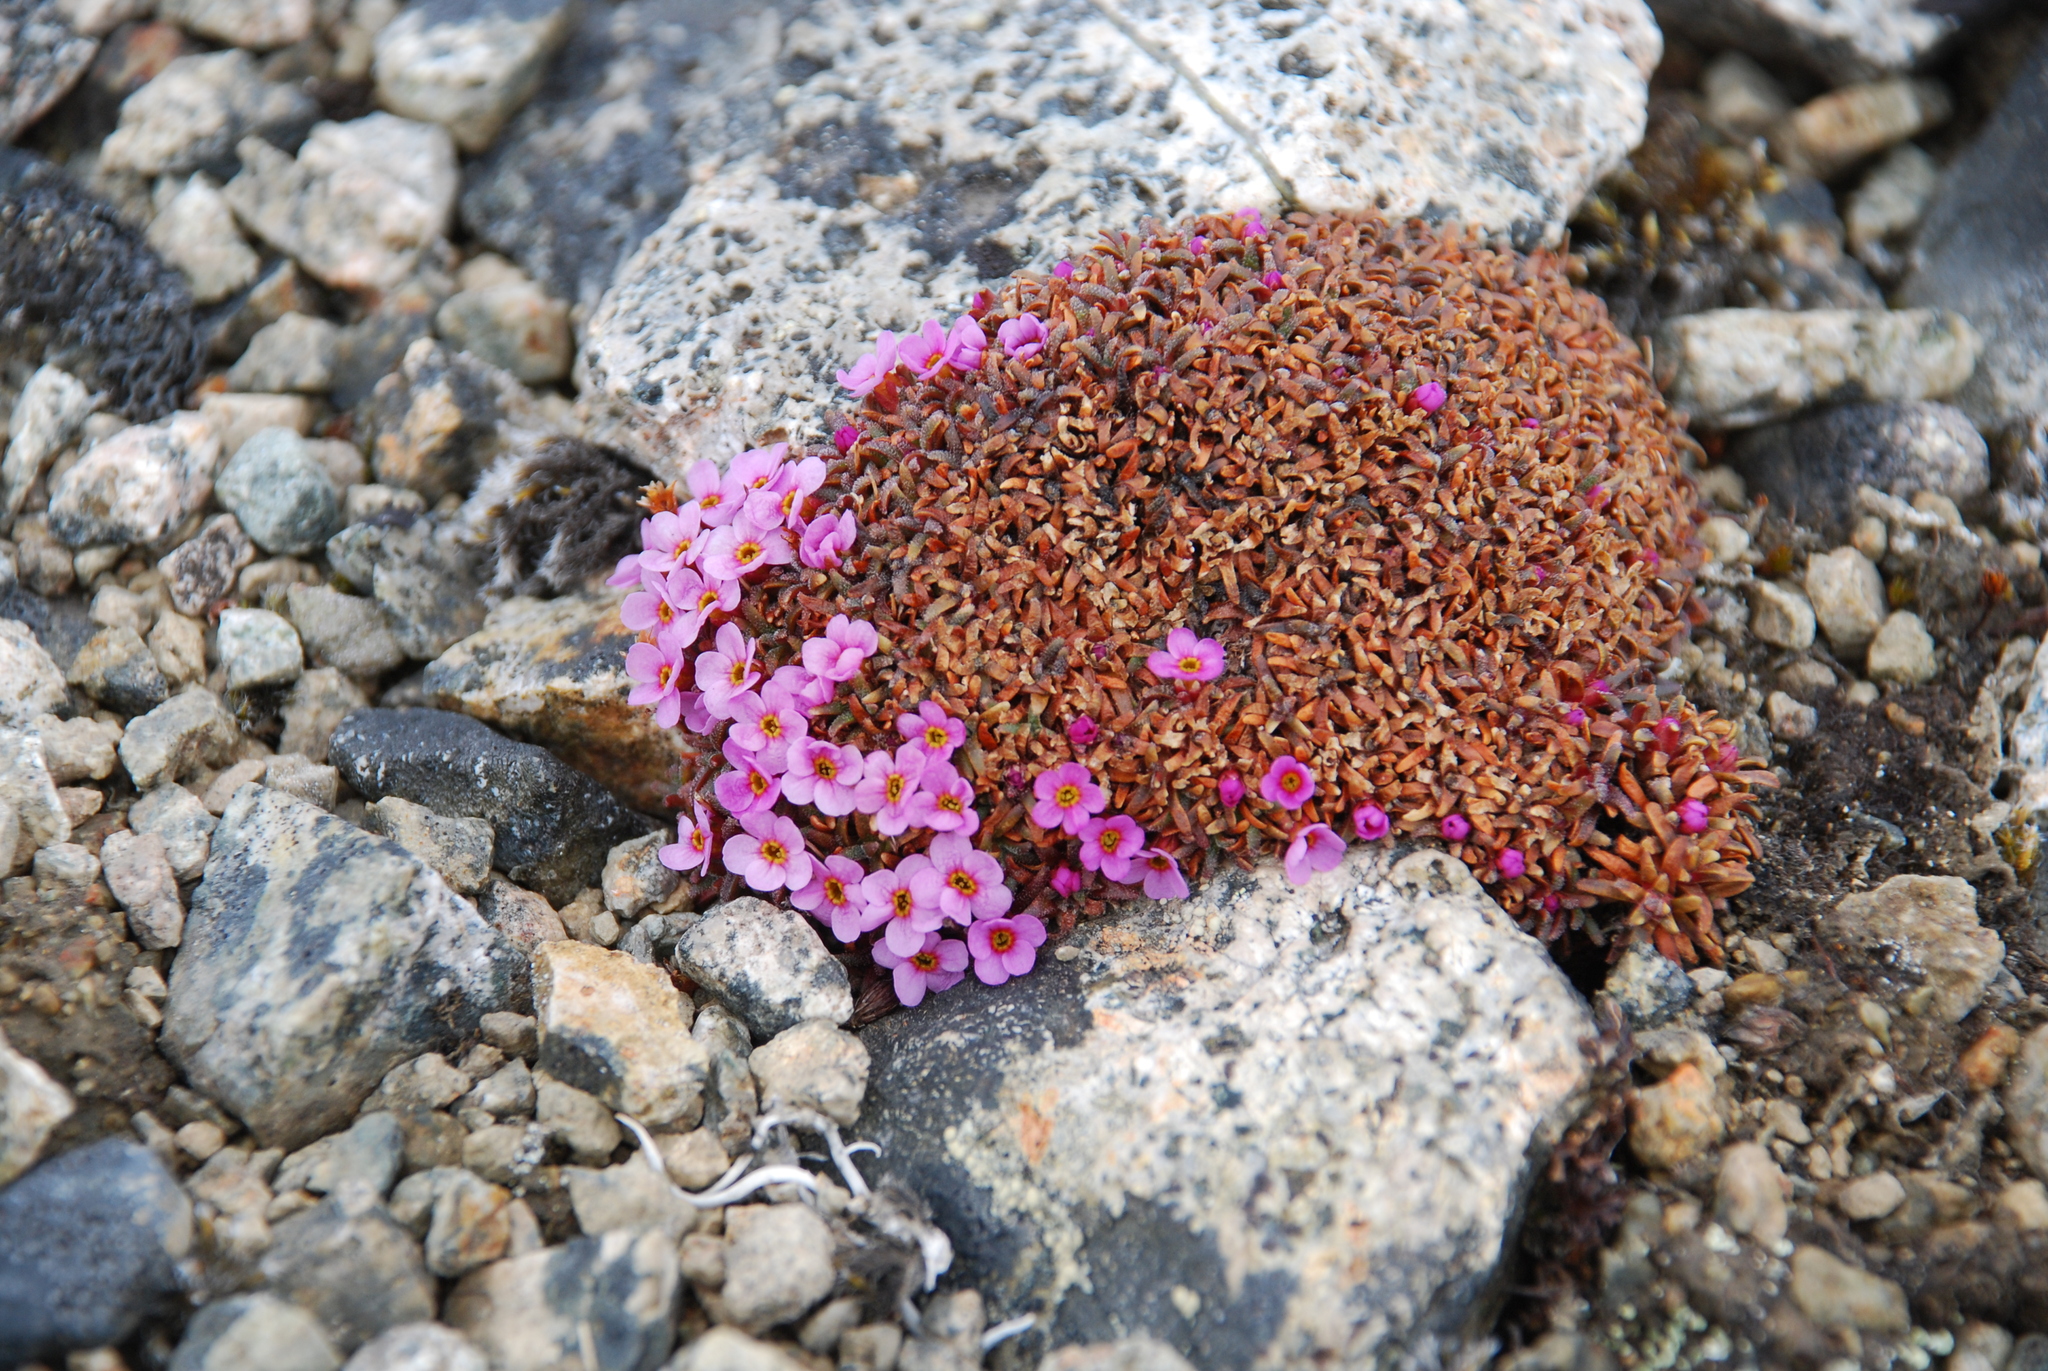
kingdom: Plantae
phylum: Tracheophyta
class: Magnoliopsida
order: Ericales
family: Primulaceae
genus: Androsace
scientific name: Androsace ochotensis
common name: Alaska dwarf-primrose
